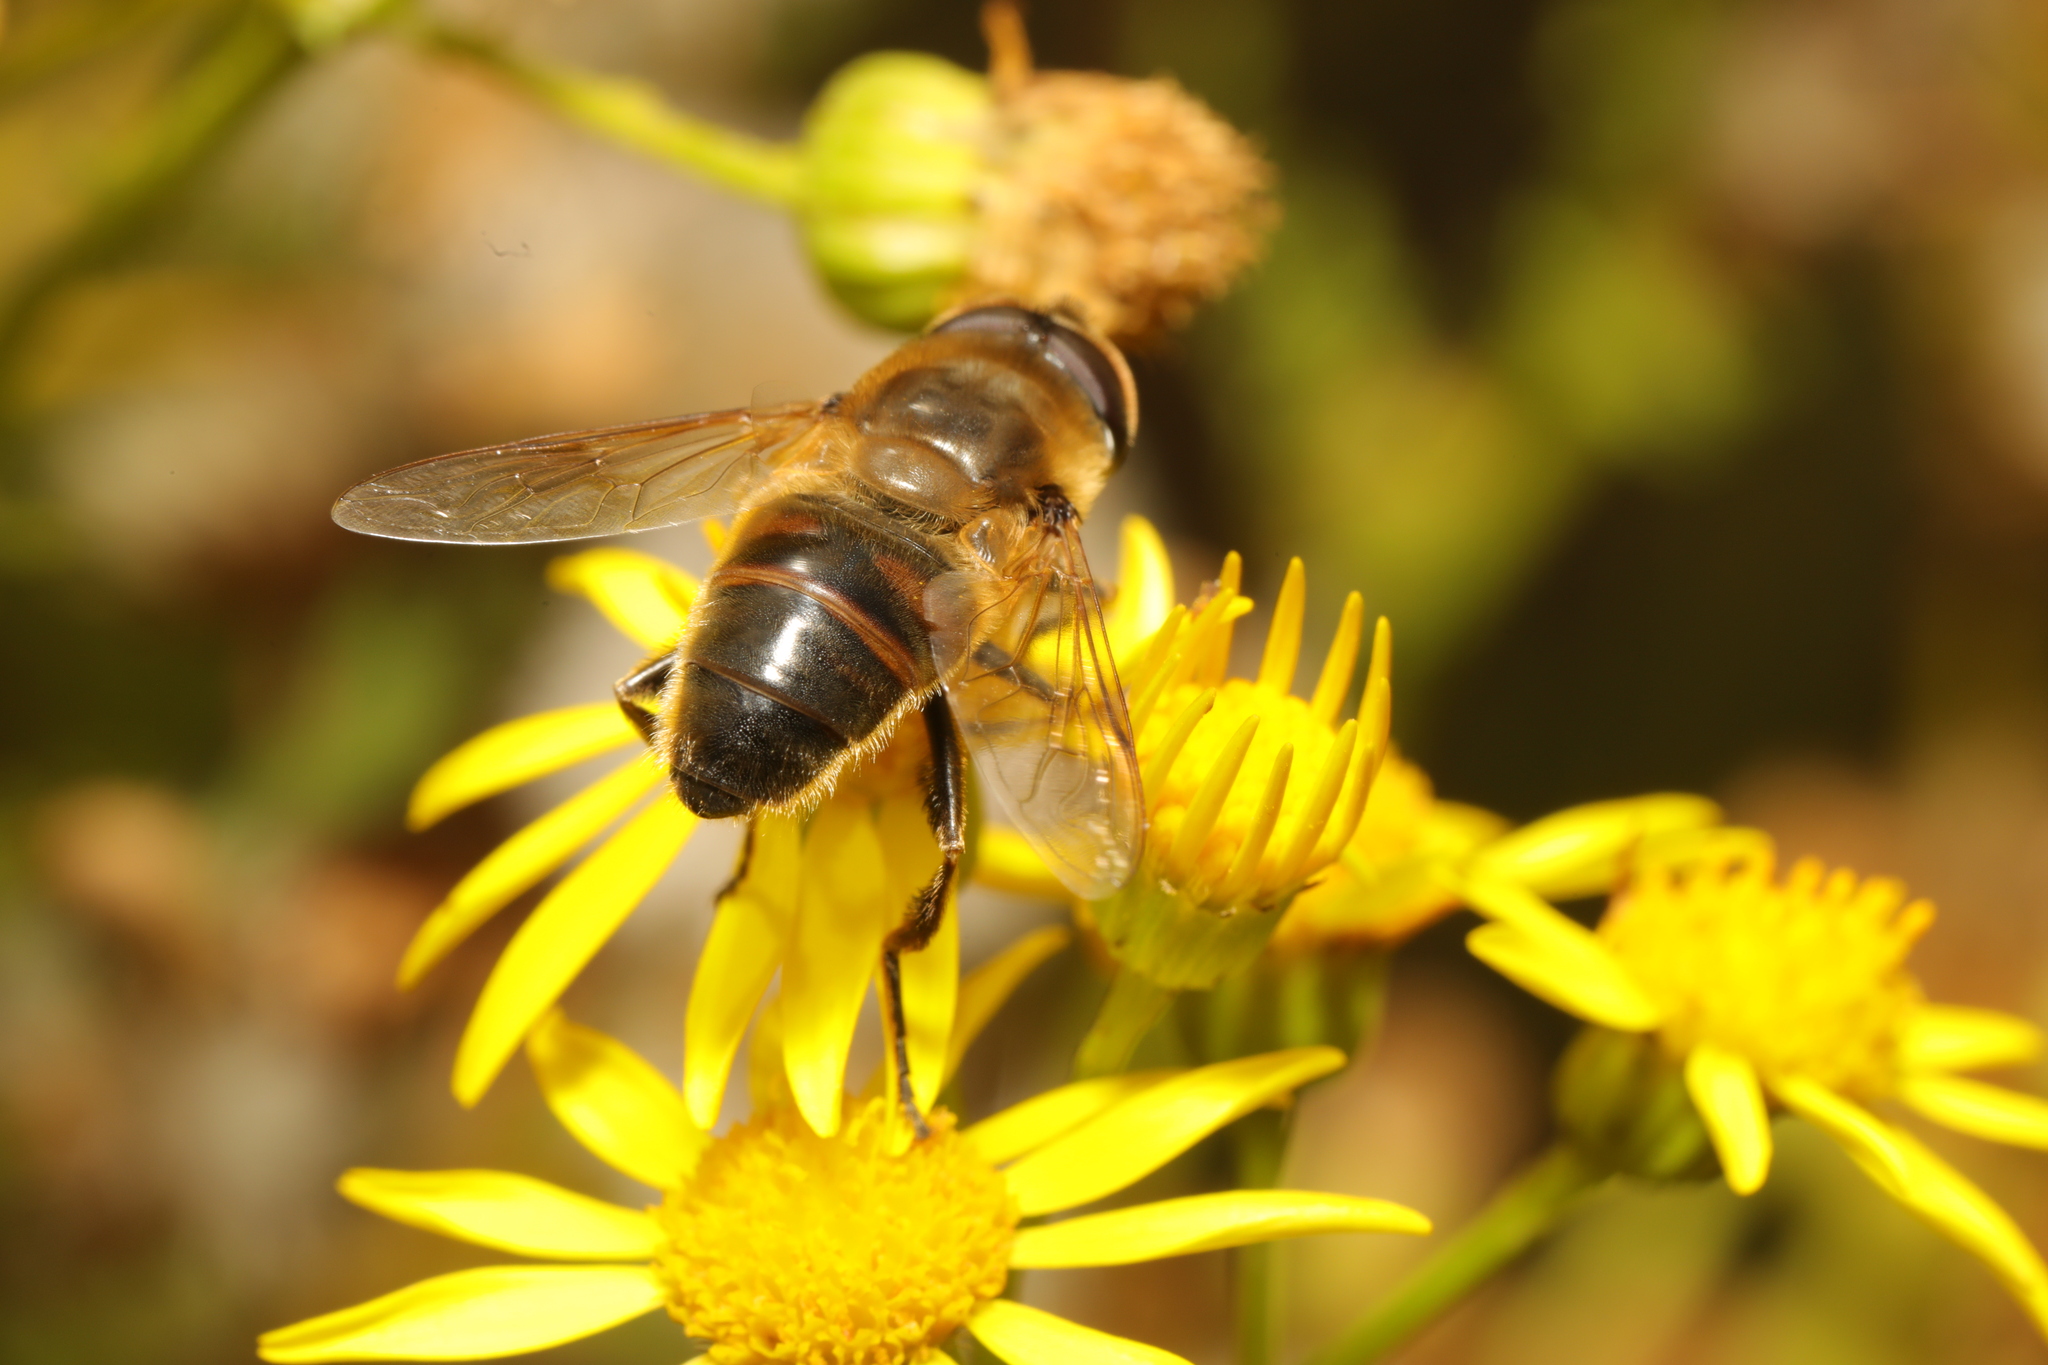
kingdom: Animalia
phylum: Arthropoda
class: Insecta
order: Diptera
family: Syrphidae
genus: Eristalis
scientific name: Eristalis tenax
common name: Drone fly
